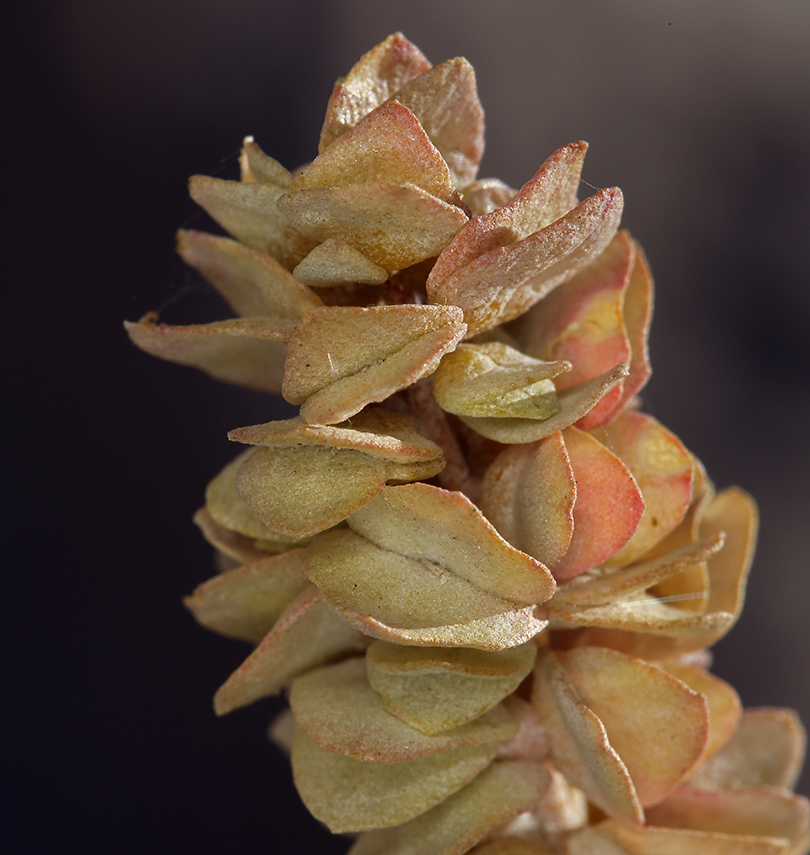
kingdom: Plantae
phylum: Tracheophyta
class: Magnoliopsida
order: Caryophyllales
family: Amaranthaceae
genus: Atriplex
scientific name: Atriplex confertifolia
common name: Shadscale
